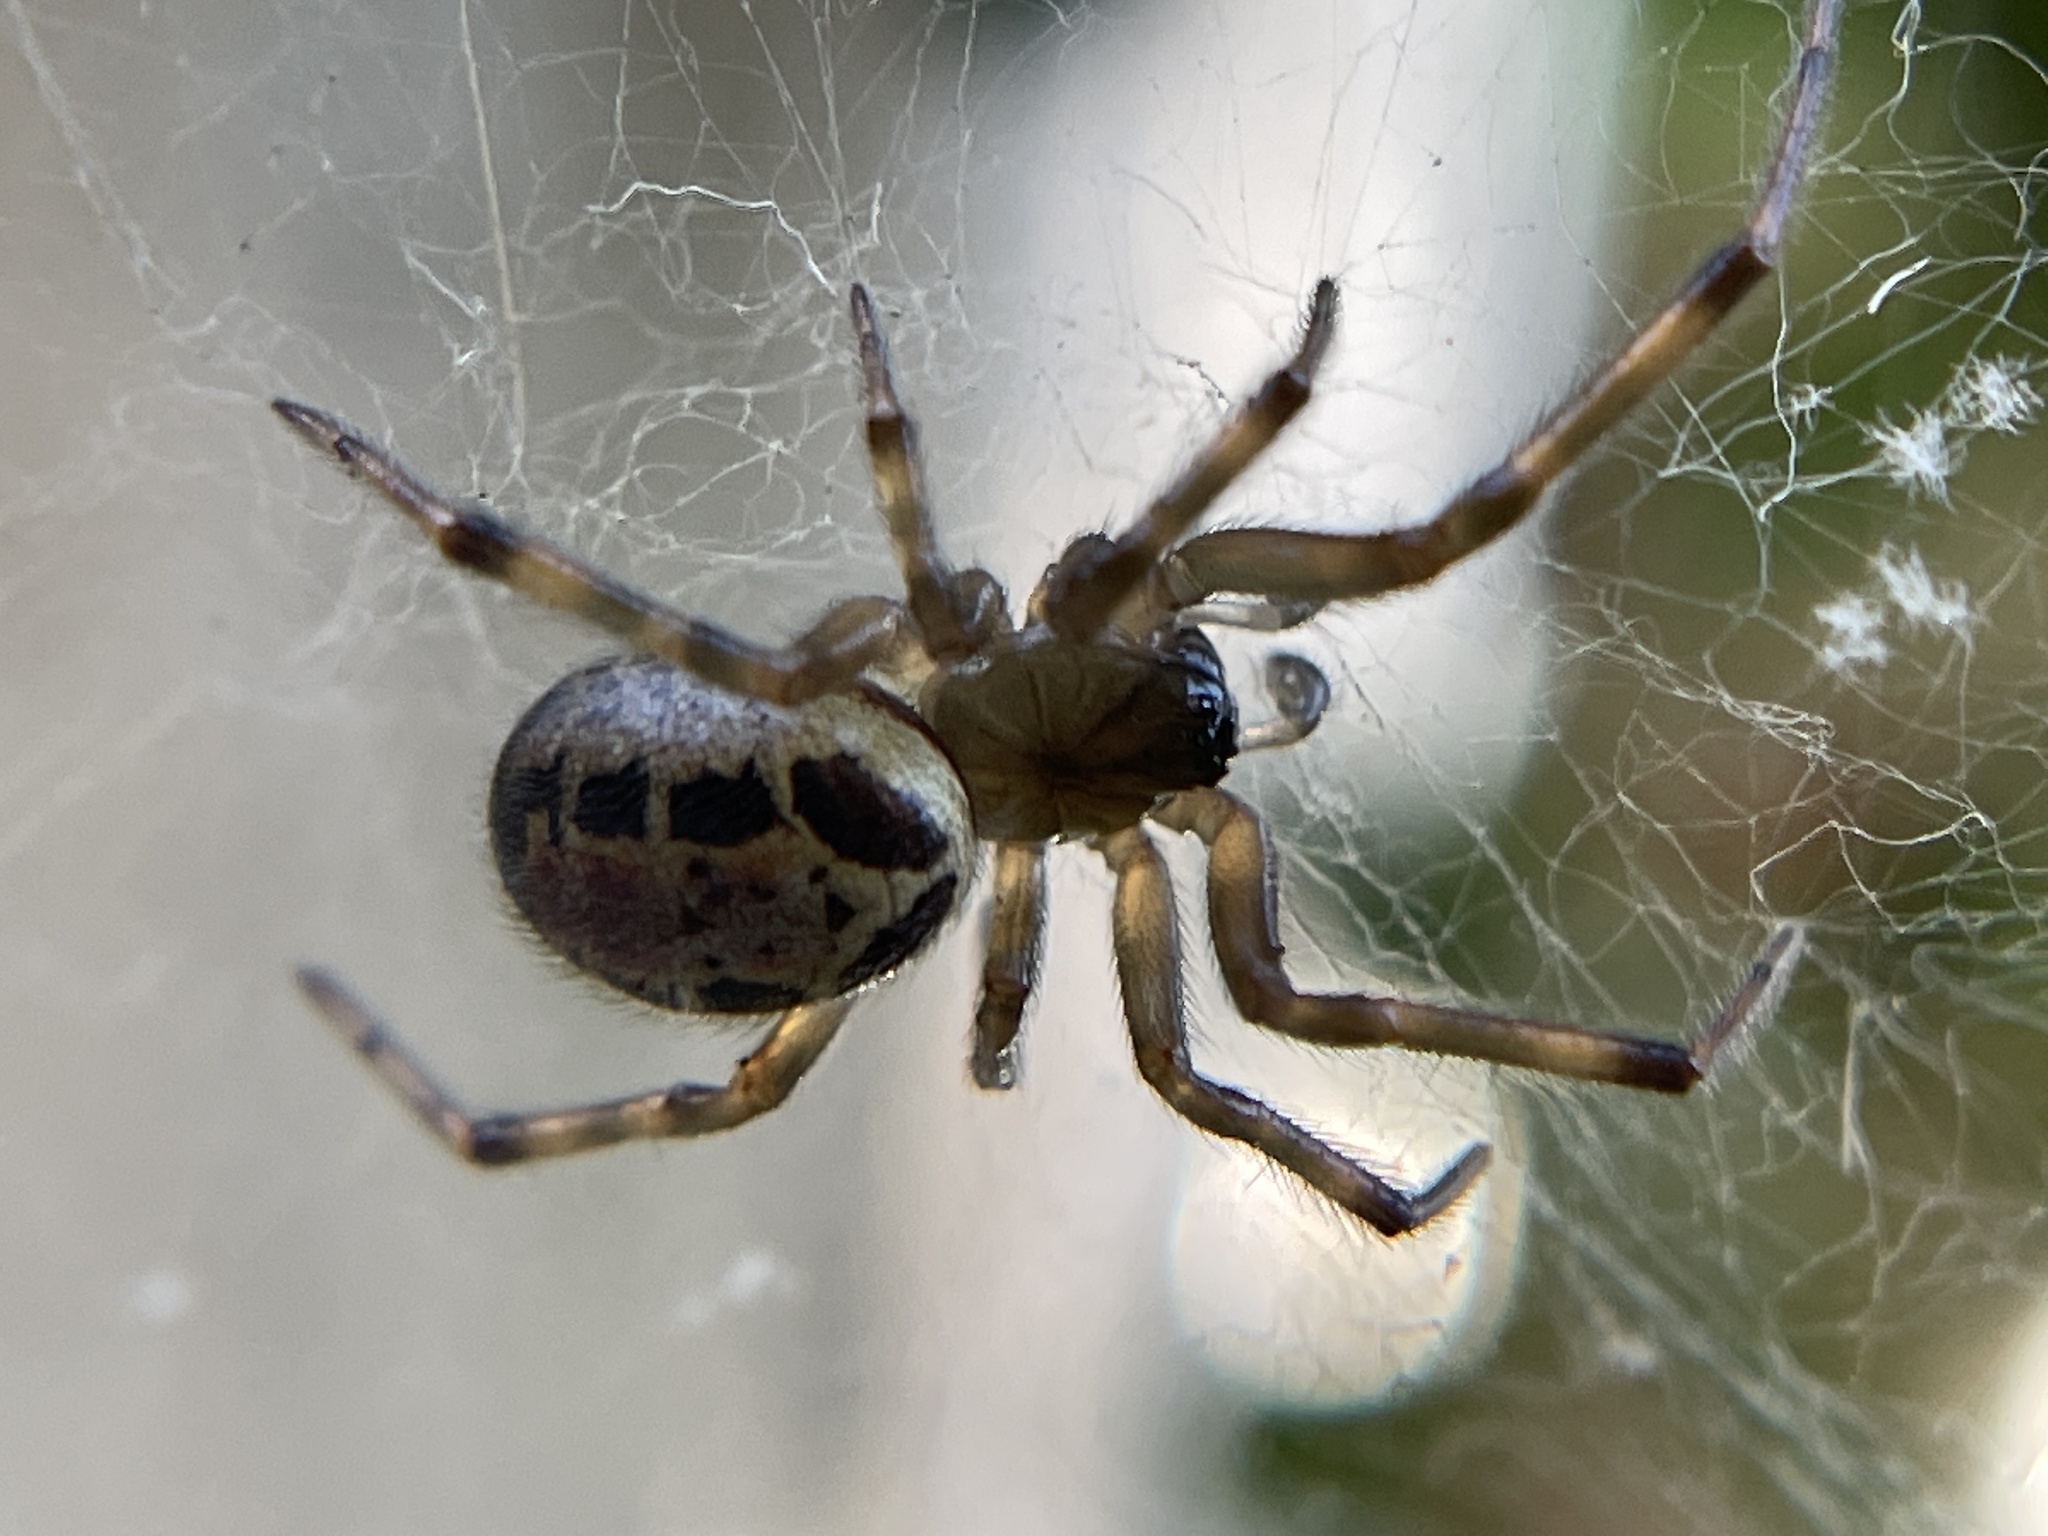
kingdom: Animalia
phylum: Arthropoda
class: Arachnida
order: Araneae
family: Theridiidae
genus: Steatoda
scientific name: Steatoda nobilis
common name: Cobweb weaver
